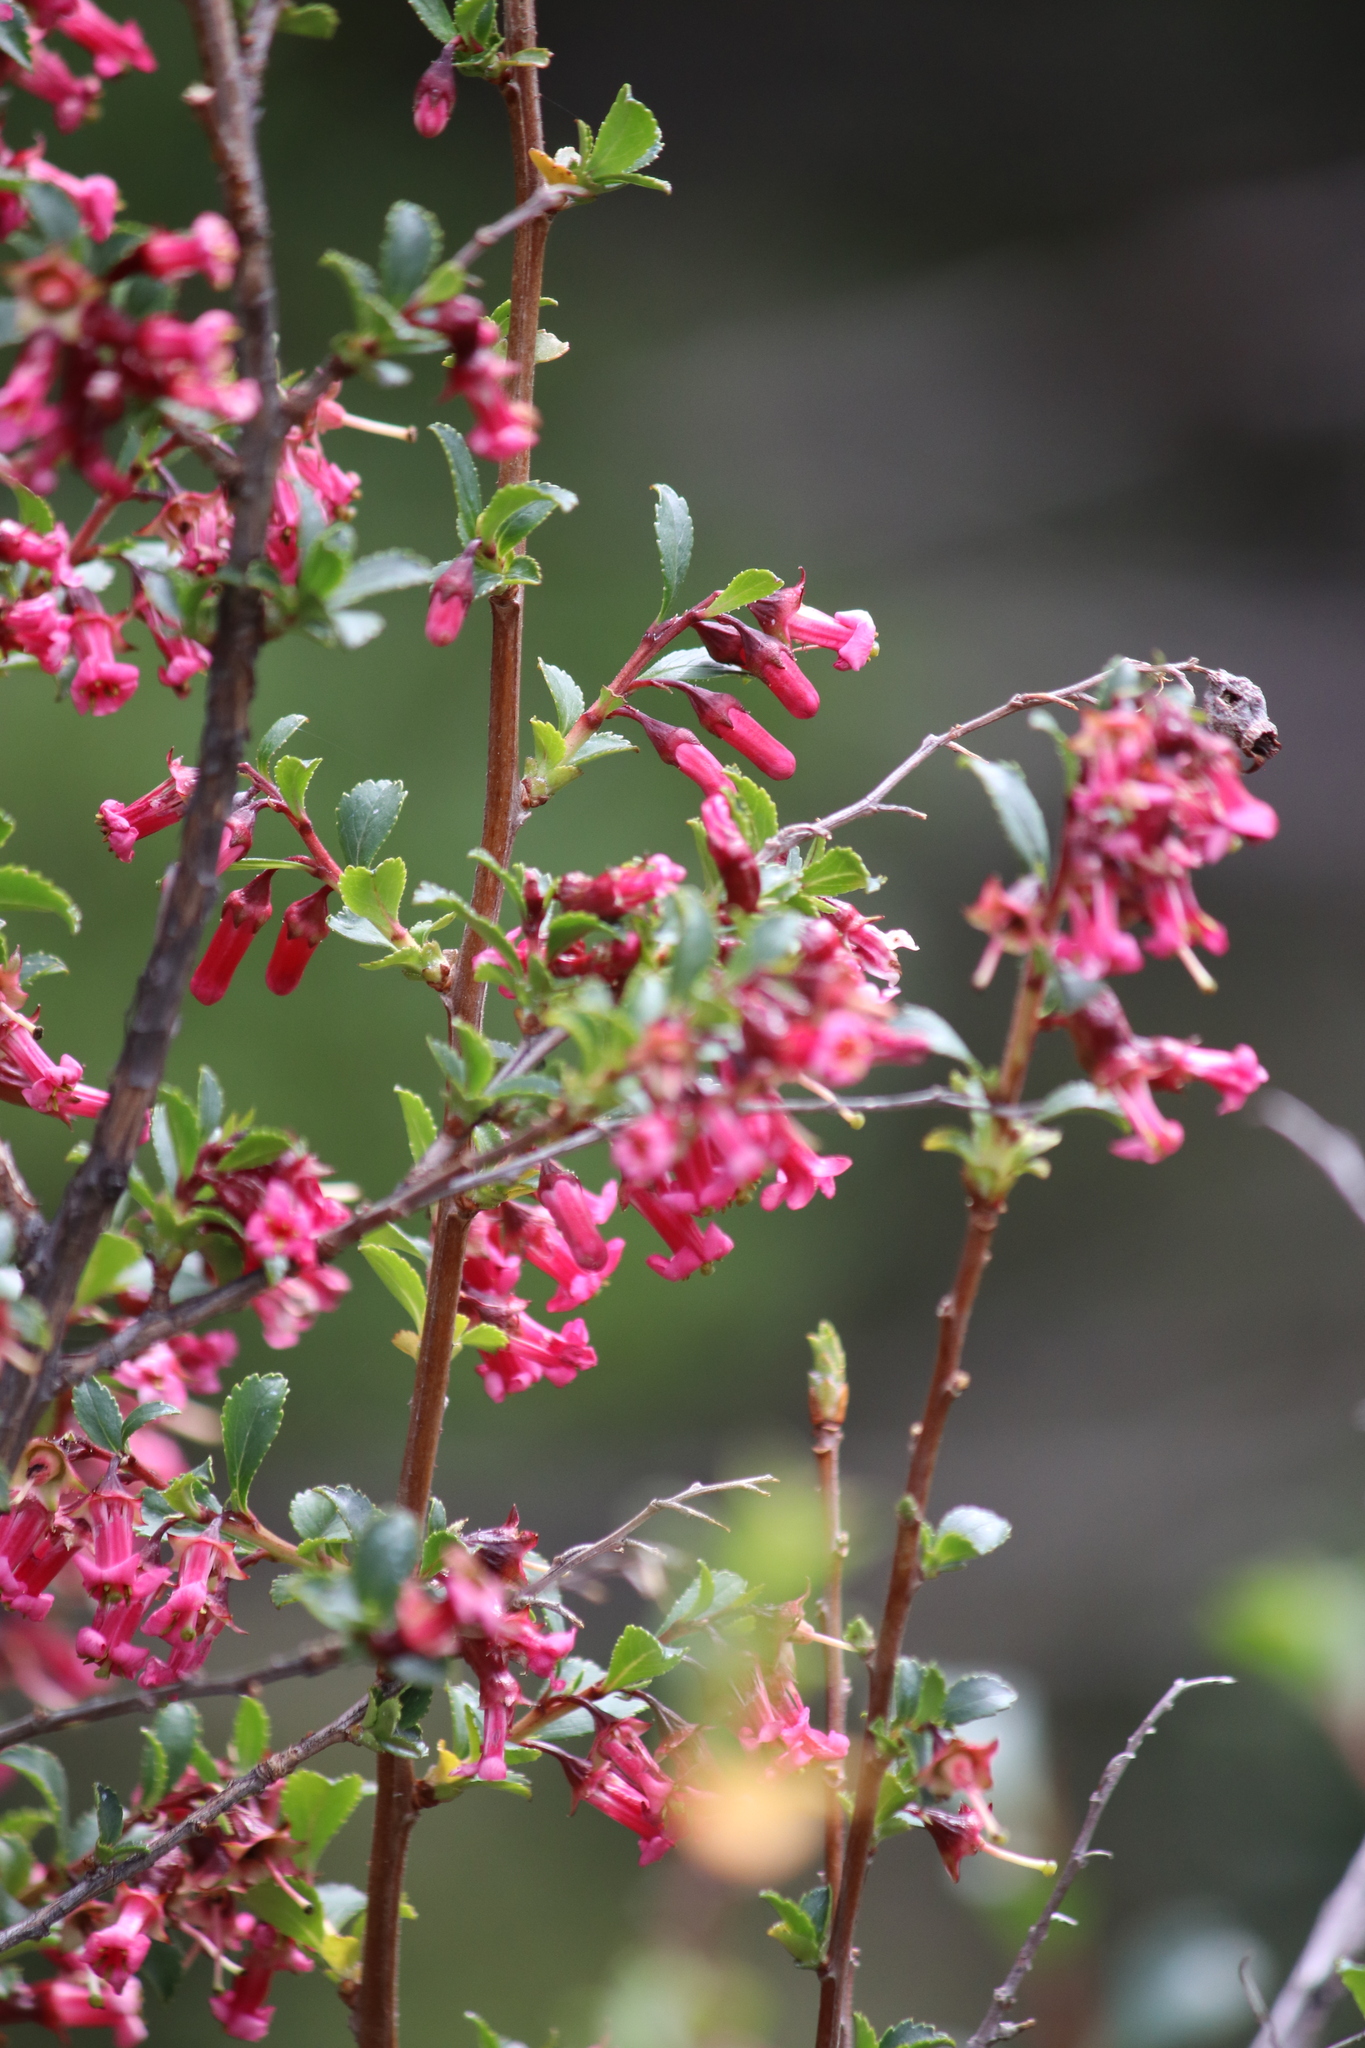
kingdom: Plantae
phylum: Tracheophyta
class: Magnoliopsida
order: Escalloniales
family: Escalloniaceae
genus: Escallonia
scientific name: Escallonia rubra
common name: Redclaws
